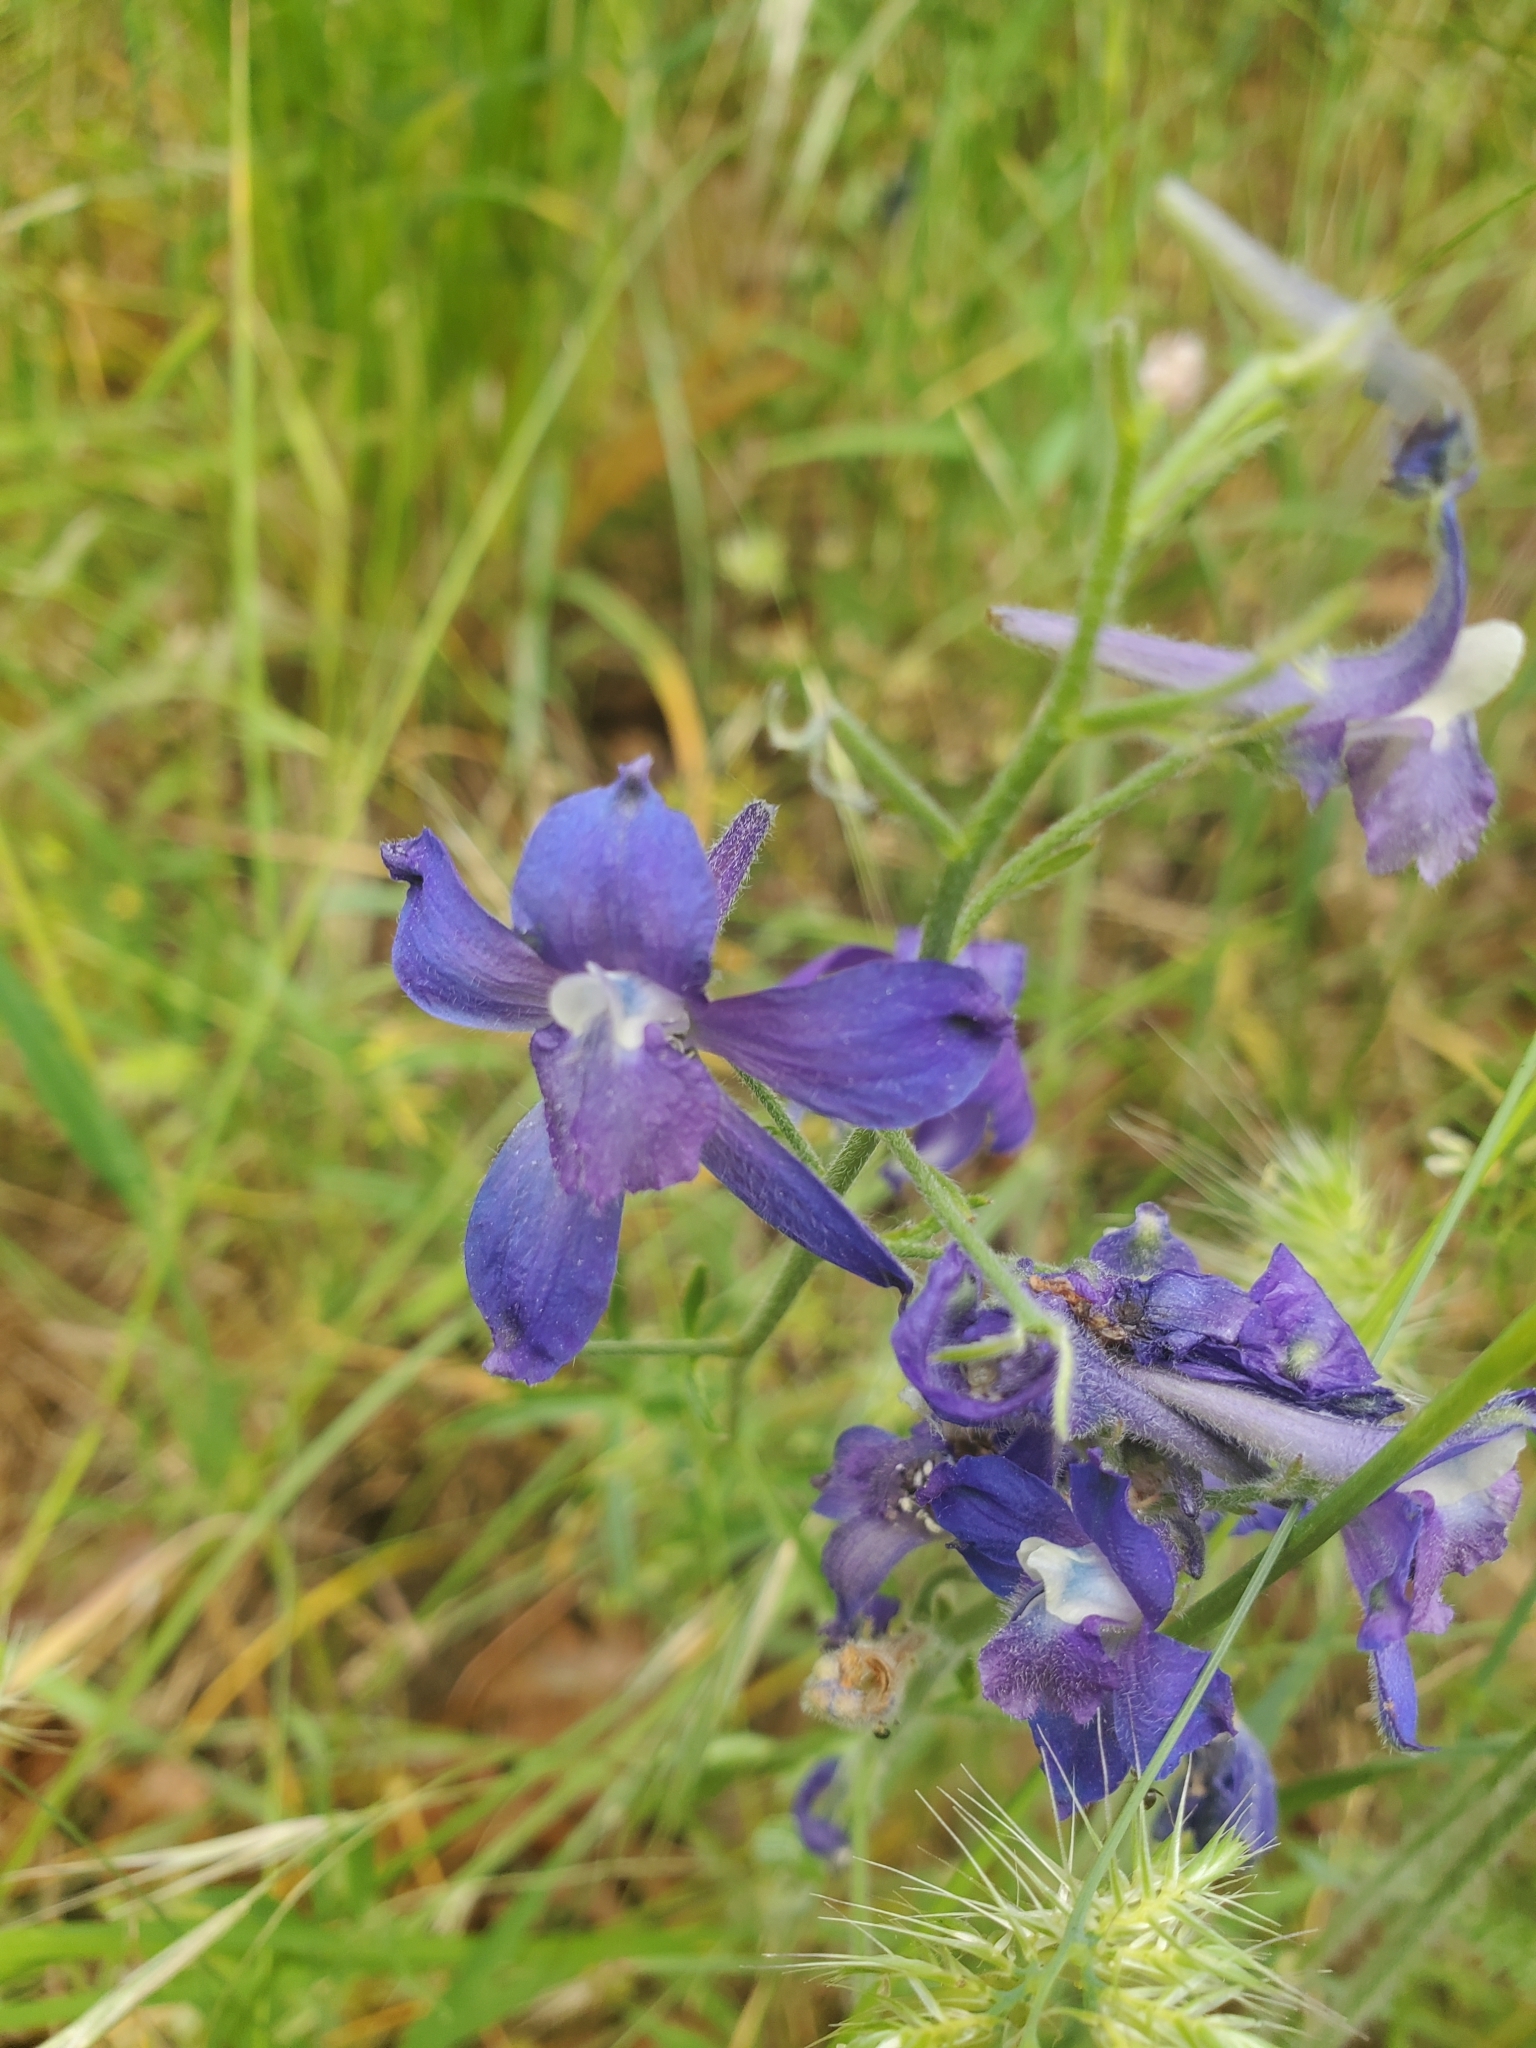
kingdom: Plantae
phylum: Tracheophyta
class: Magnoliopsida
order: Ranunculales
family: Ranunculaceae
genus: Delphinium
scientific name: Delphinium menziesii
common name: Menzies's larkspur
